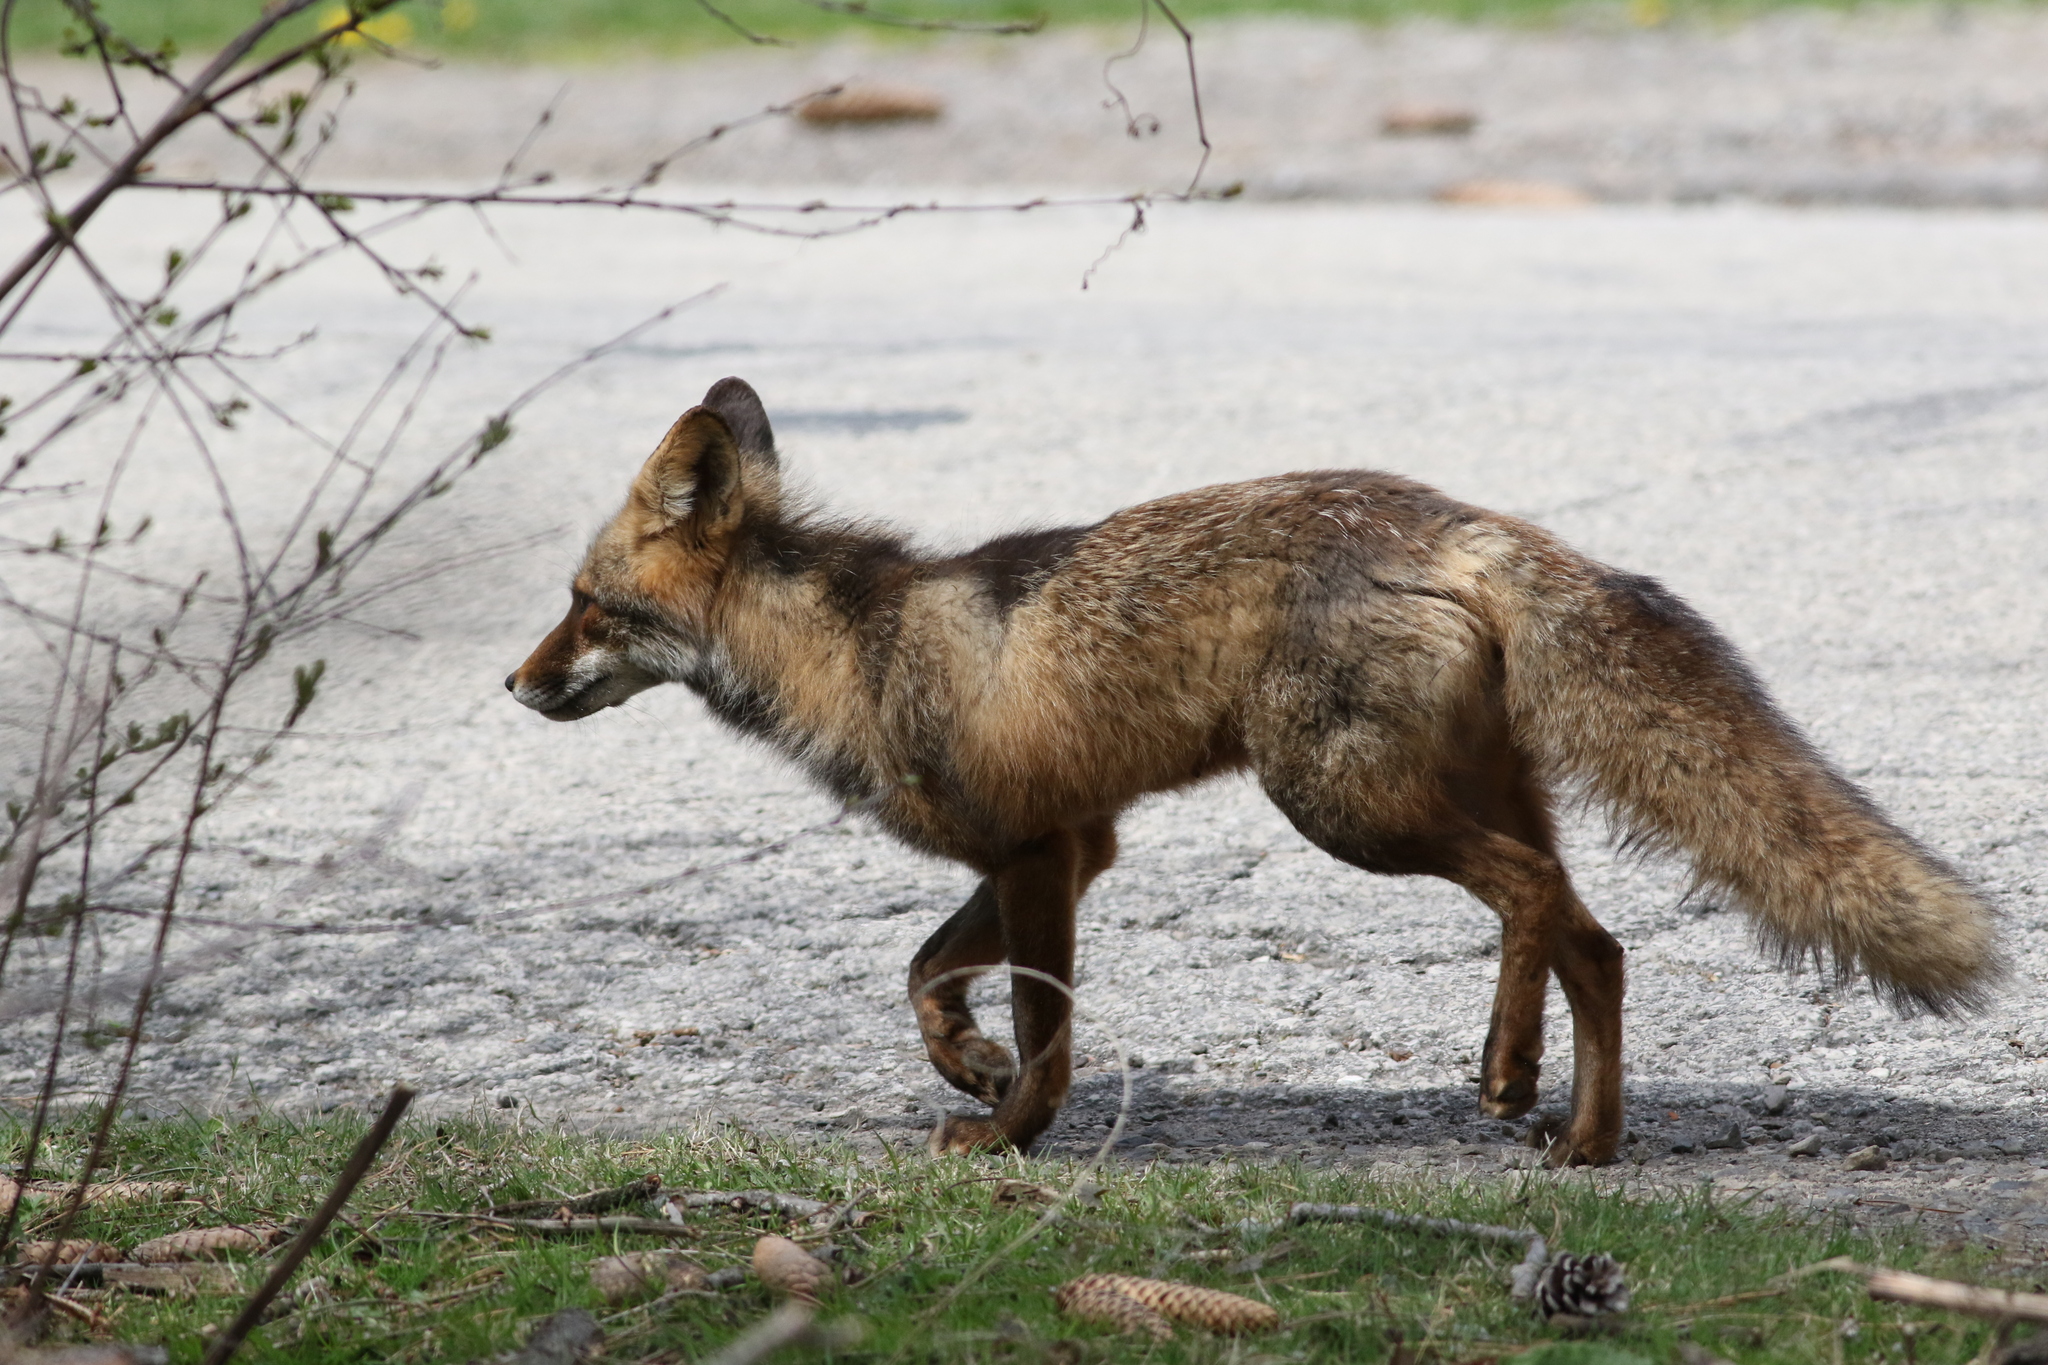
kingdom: Animalia
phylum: Chordata
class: Mammalia
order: Carnivora
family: Canidae
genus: Vulpes
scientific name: Vulpes vulpes
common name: Red fox
